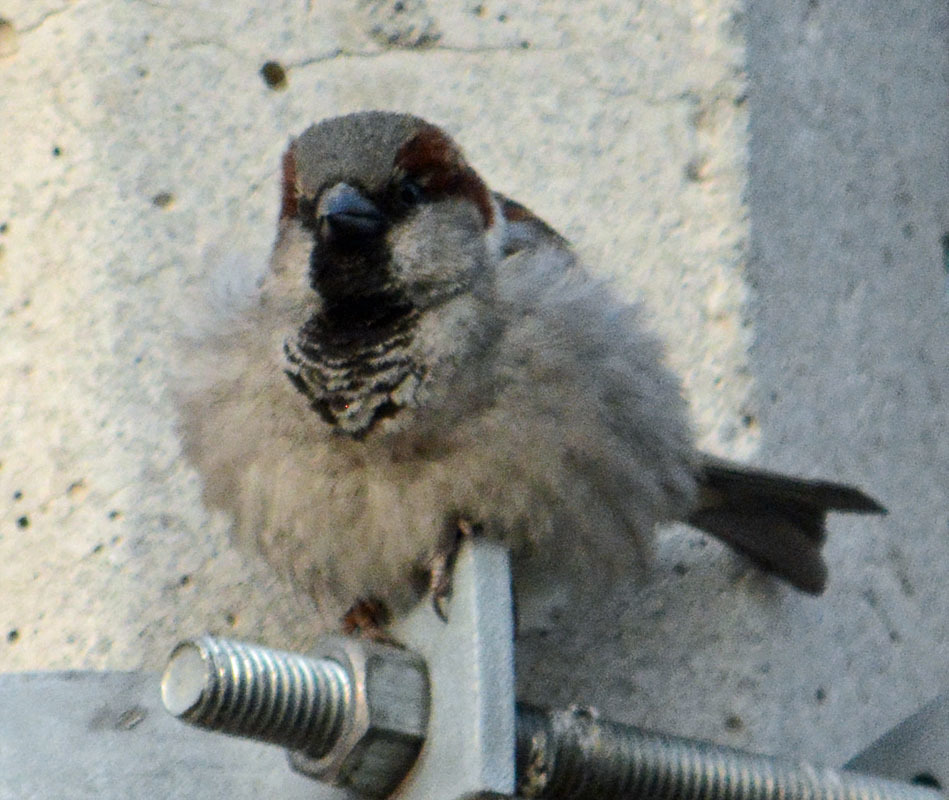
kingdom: Animalia
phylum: Chordata
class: Aves
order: Passeriformes
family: Passeridae
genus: Passer
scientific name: Passer domesticus
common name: House sparrow
